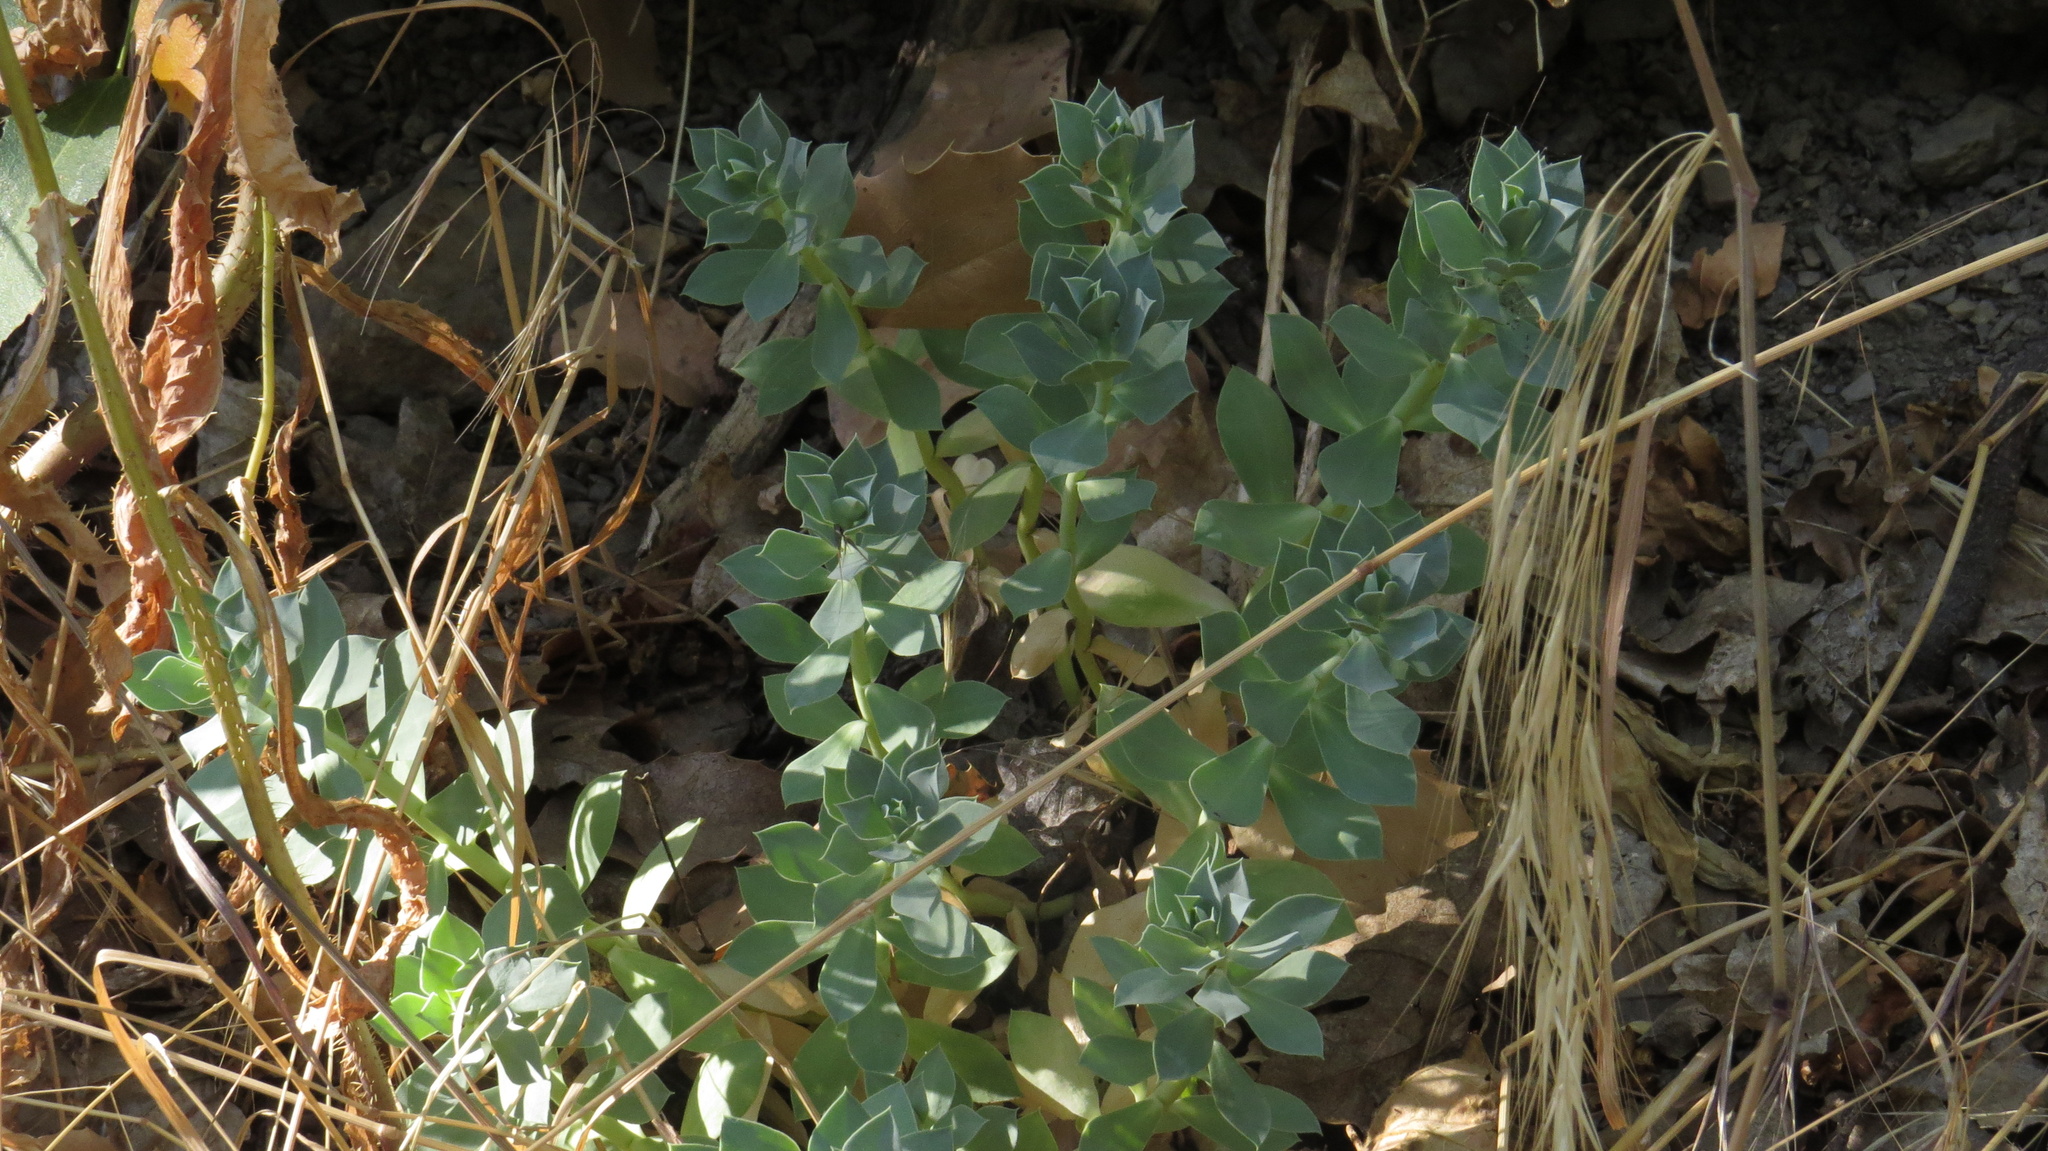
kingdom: Plantae
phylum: Tracheophyta
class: Magnoliopsida
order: Malpighiales
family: Euphorbiaceae
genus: Euphorbia
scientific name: Euphorbia myrsinites
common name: Myrtle spurge
